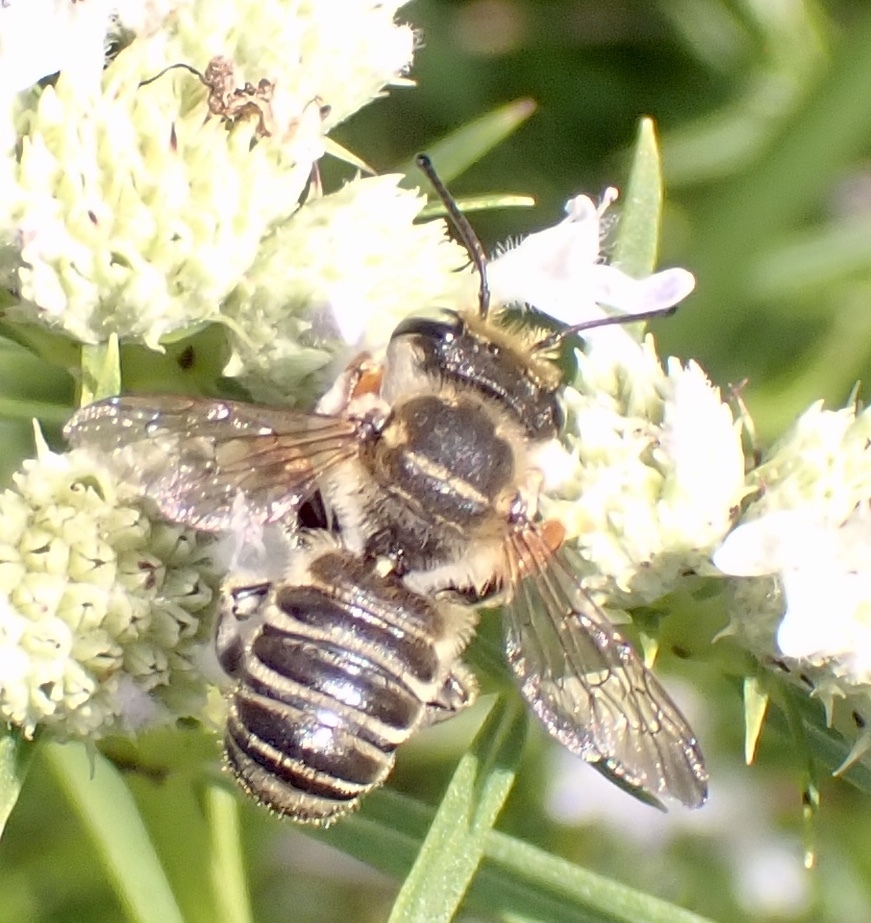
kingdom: Animalia
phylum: Arthropoda
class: Insecta
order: Hymenoptera
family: Megachilidae
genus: Megachile
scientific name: Megachile albitarsis
